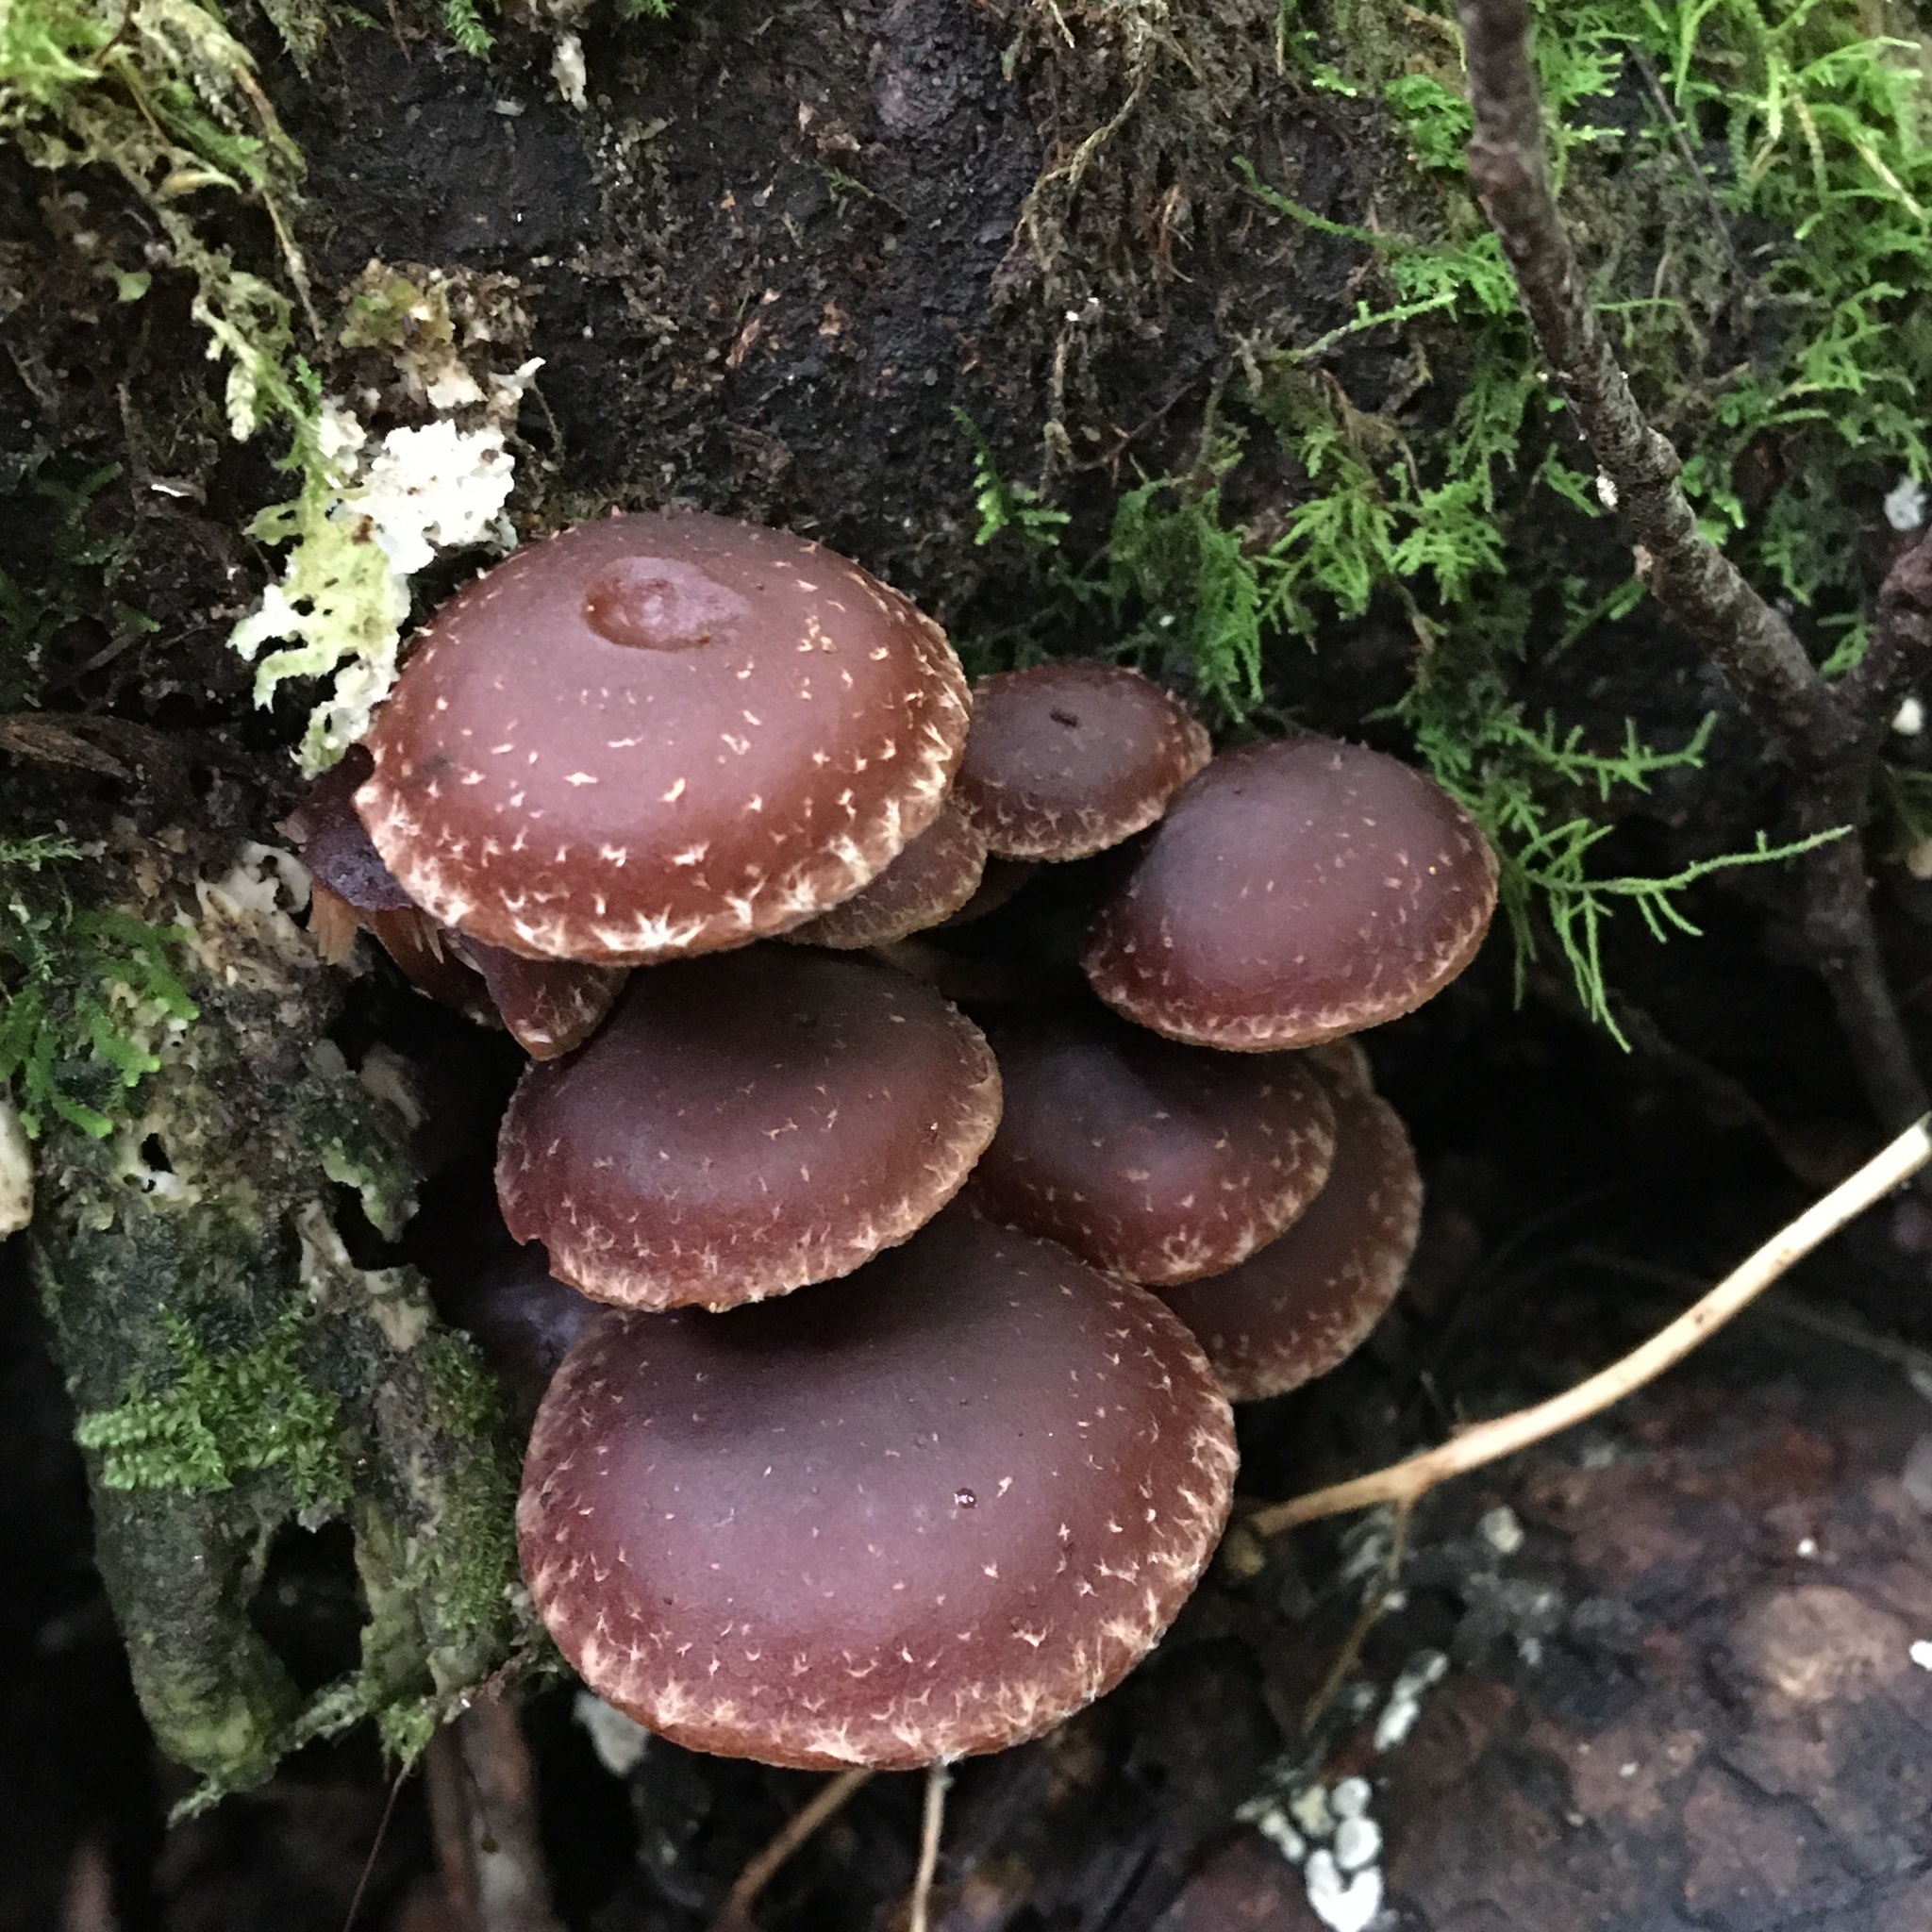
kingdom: Fungi
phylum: Basidiomycota
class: Agaricomycetes
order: Agaricales
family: Strophariaceae
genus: Hypholoma
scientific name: Hypholoma brunneum
